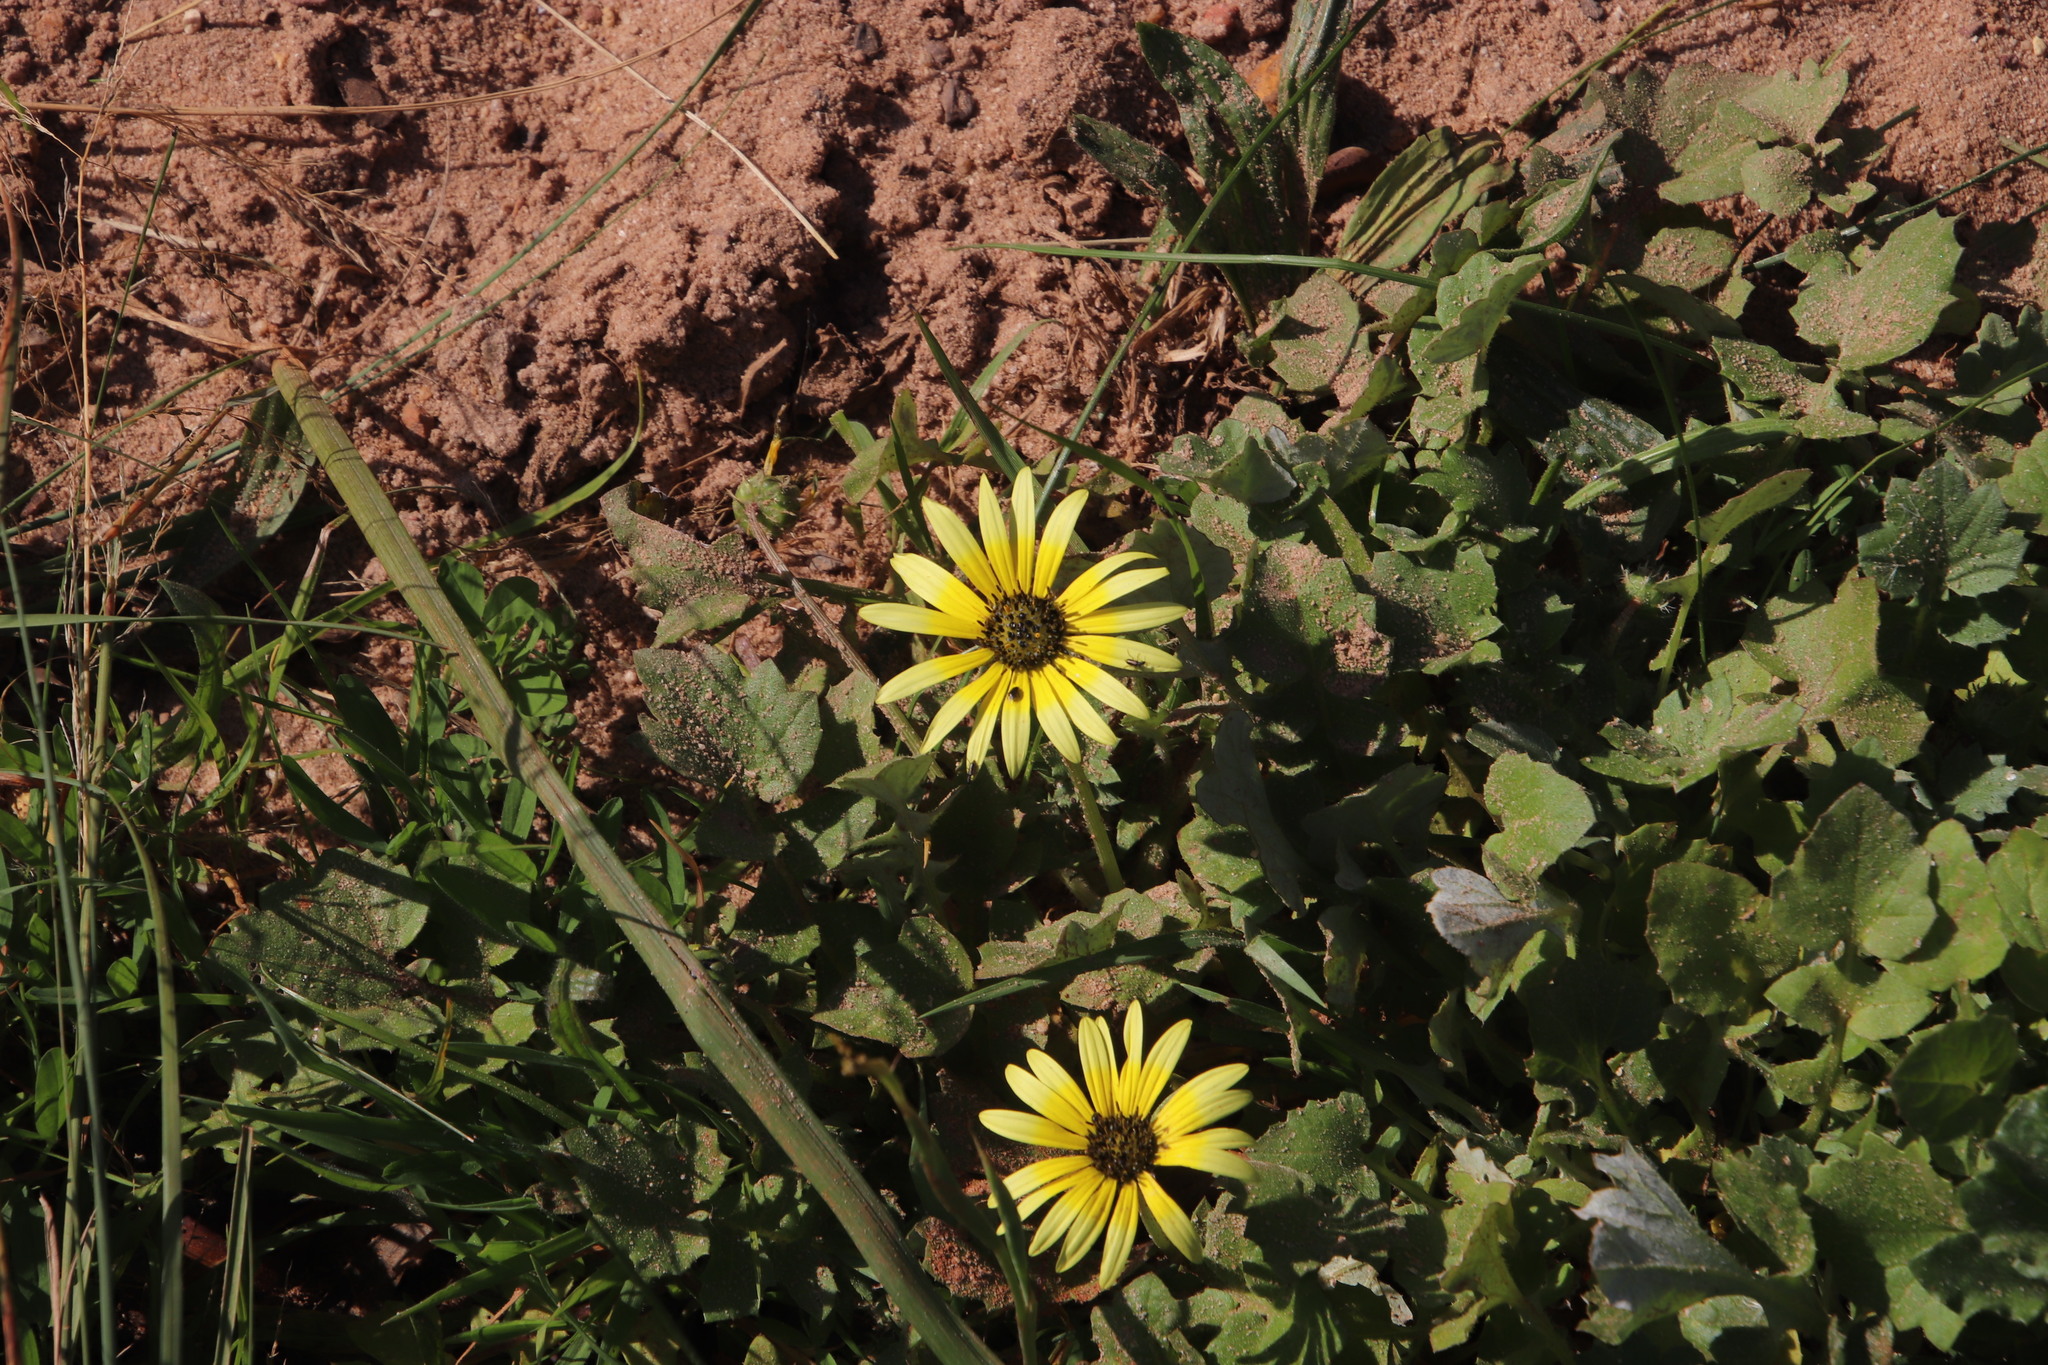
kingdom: Plantae
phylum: Tracheophyta
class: Magnoliopsida
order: Asterales
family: Asteraceae
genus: Arctotheca
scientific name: Arctotheca calendula
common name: Capeweed
